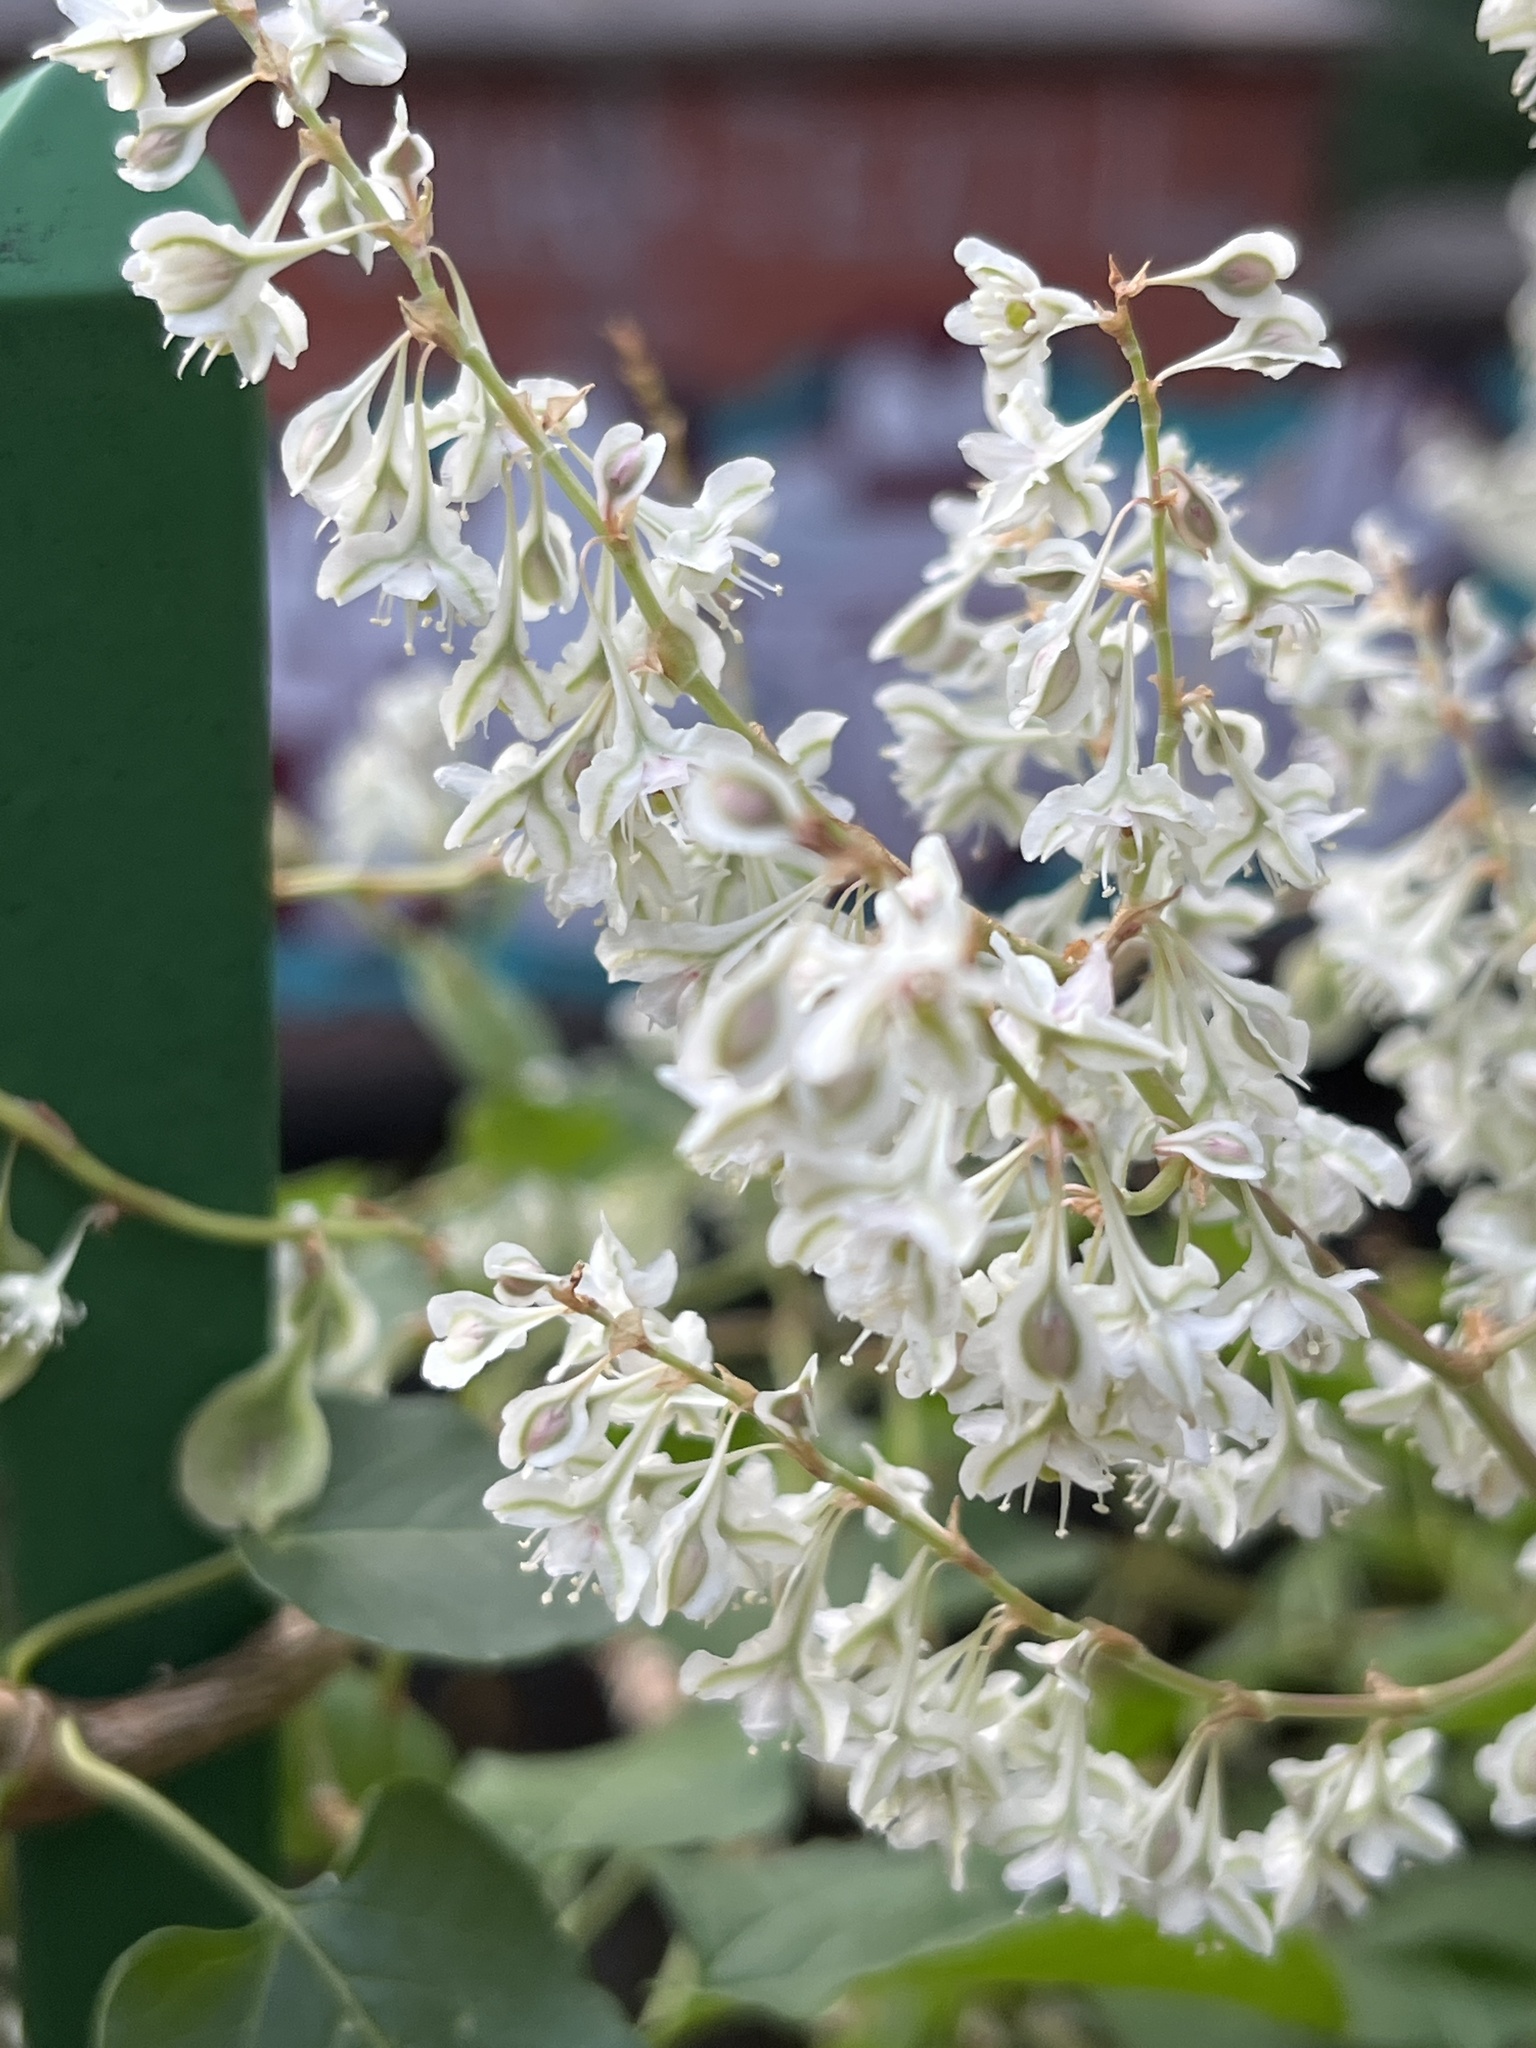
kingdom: Plantae
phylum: Tracheophyta
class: Magnoliopsida
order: Caryophyllales
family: Polygonaceae
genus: Fallopia
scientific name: Fallopia baldschuanica
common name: Russian-vine
